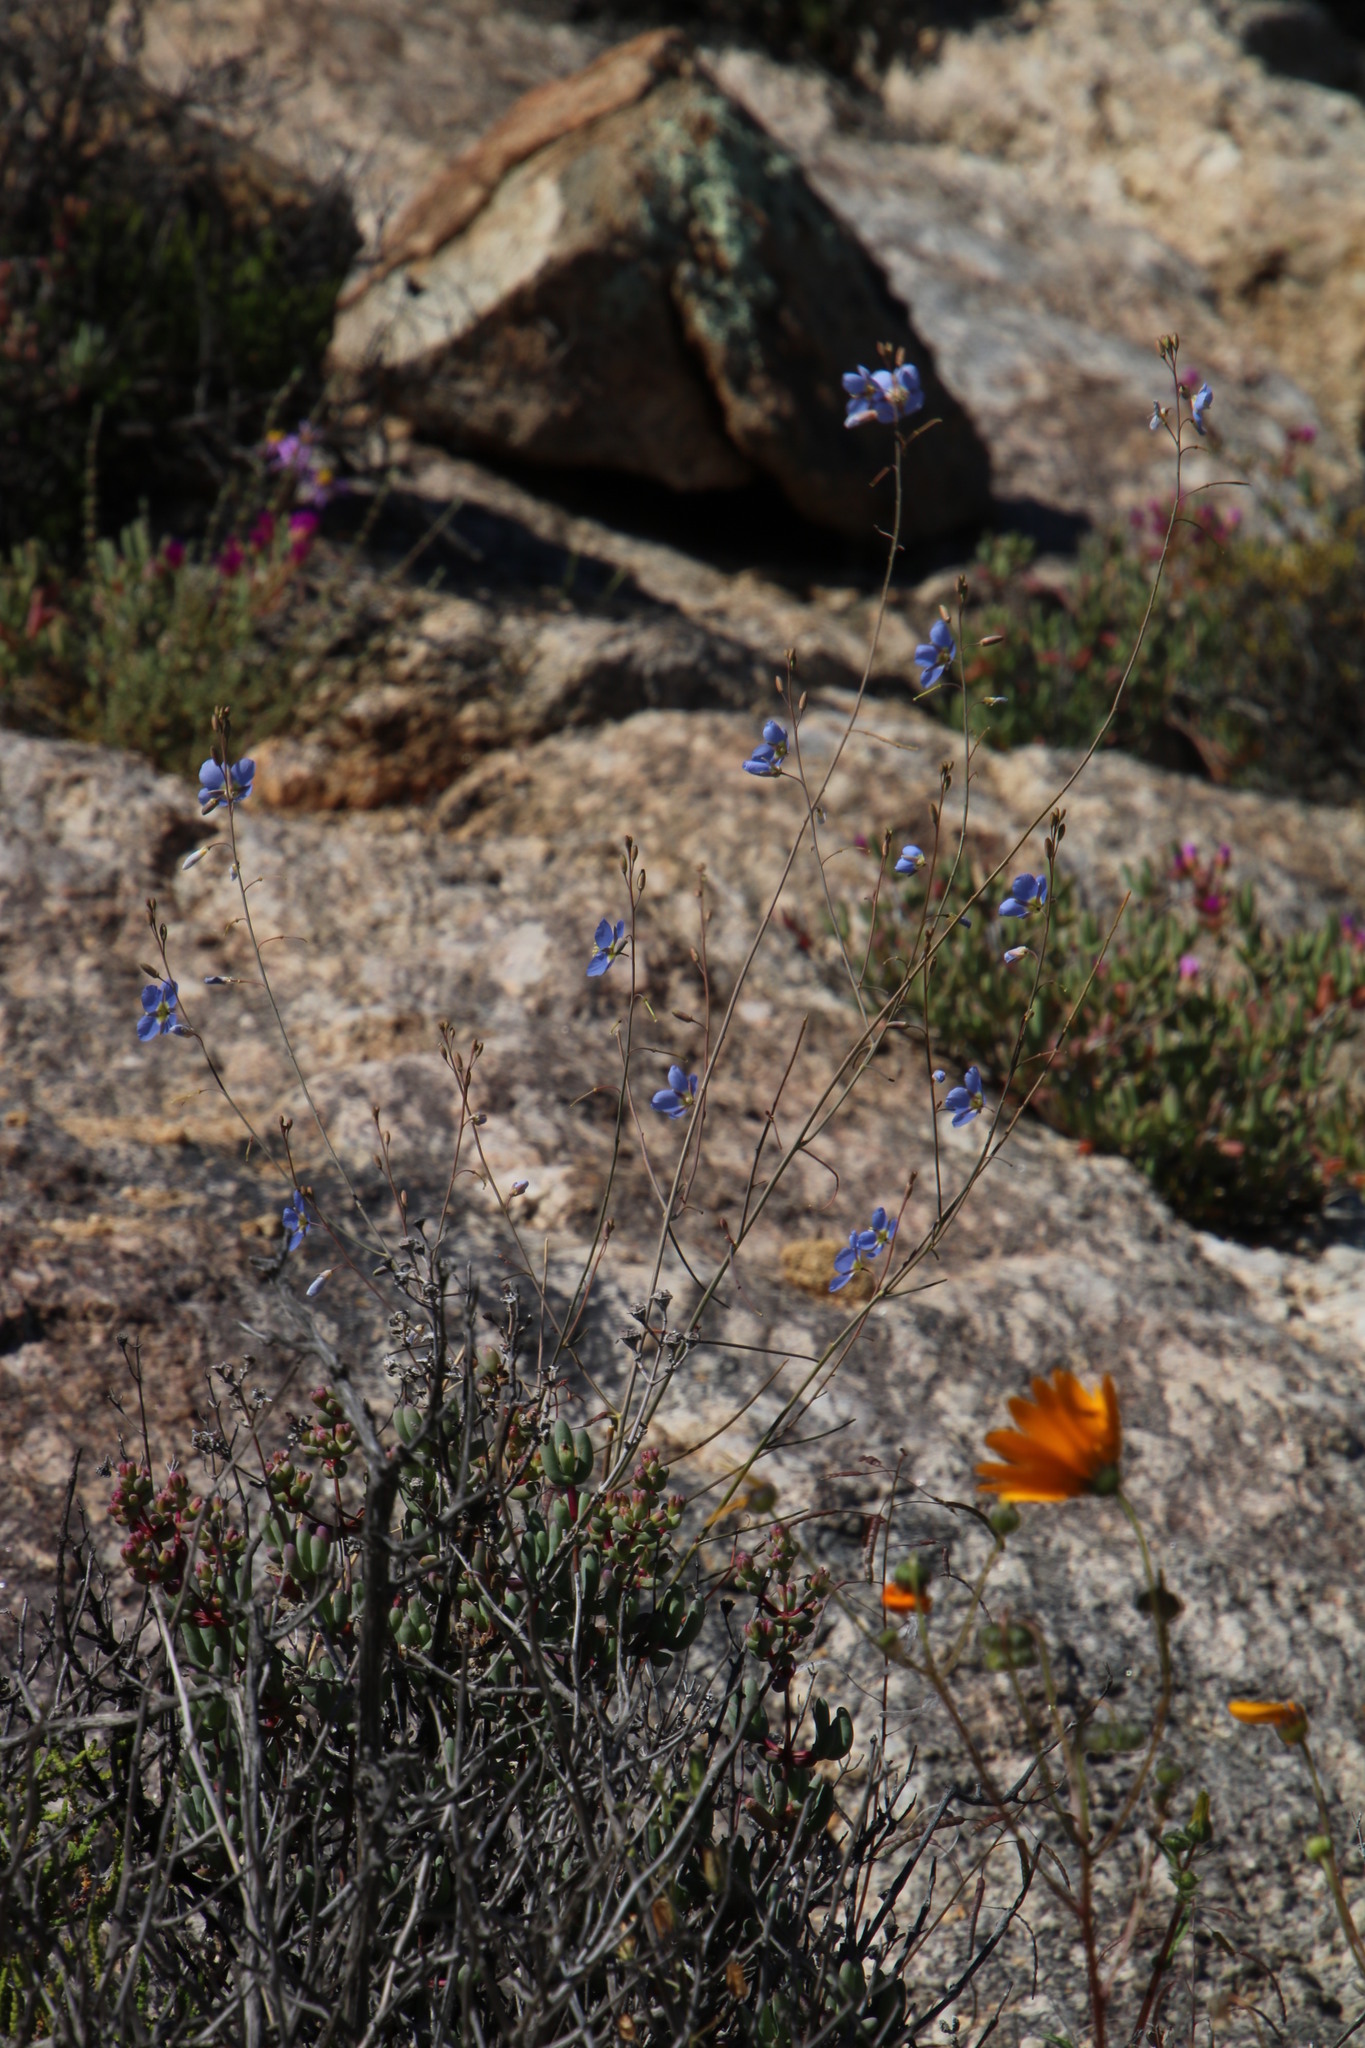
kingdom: Plantae
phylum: Tracheophyta
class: Magnoliopsida
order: Brassicales
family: Brassicaceae
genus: Heliophila
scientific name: Heliophila lactea
